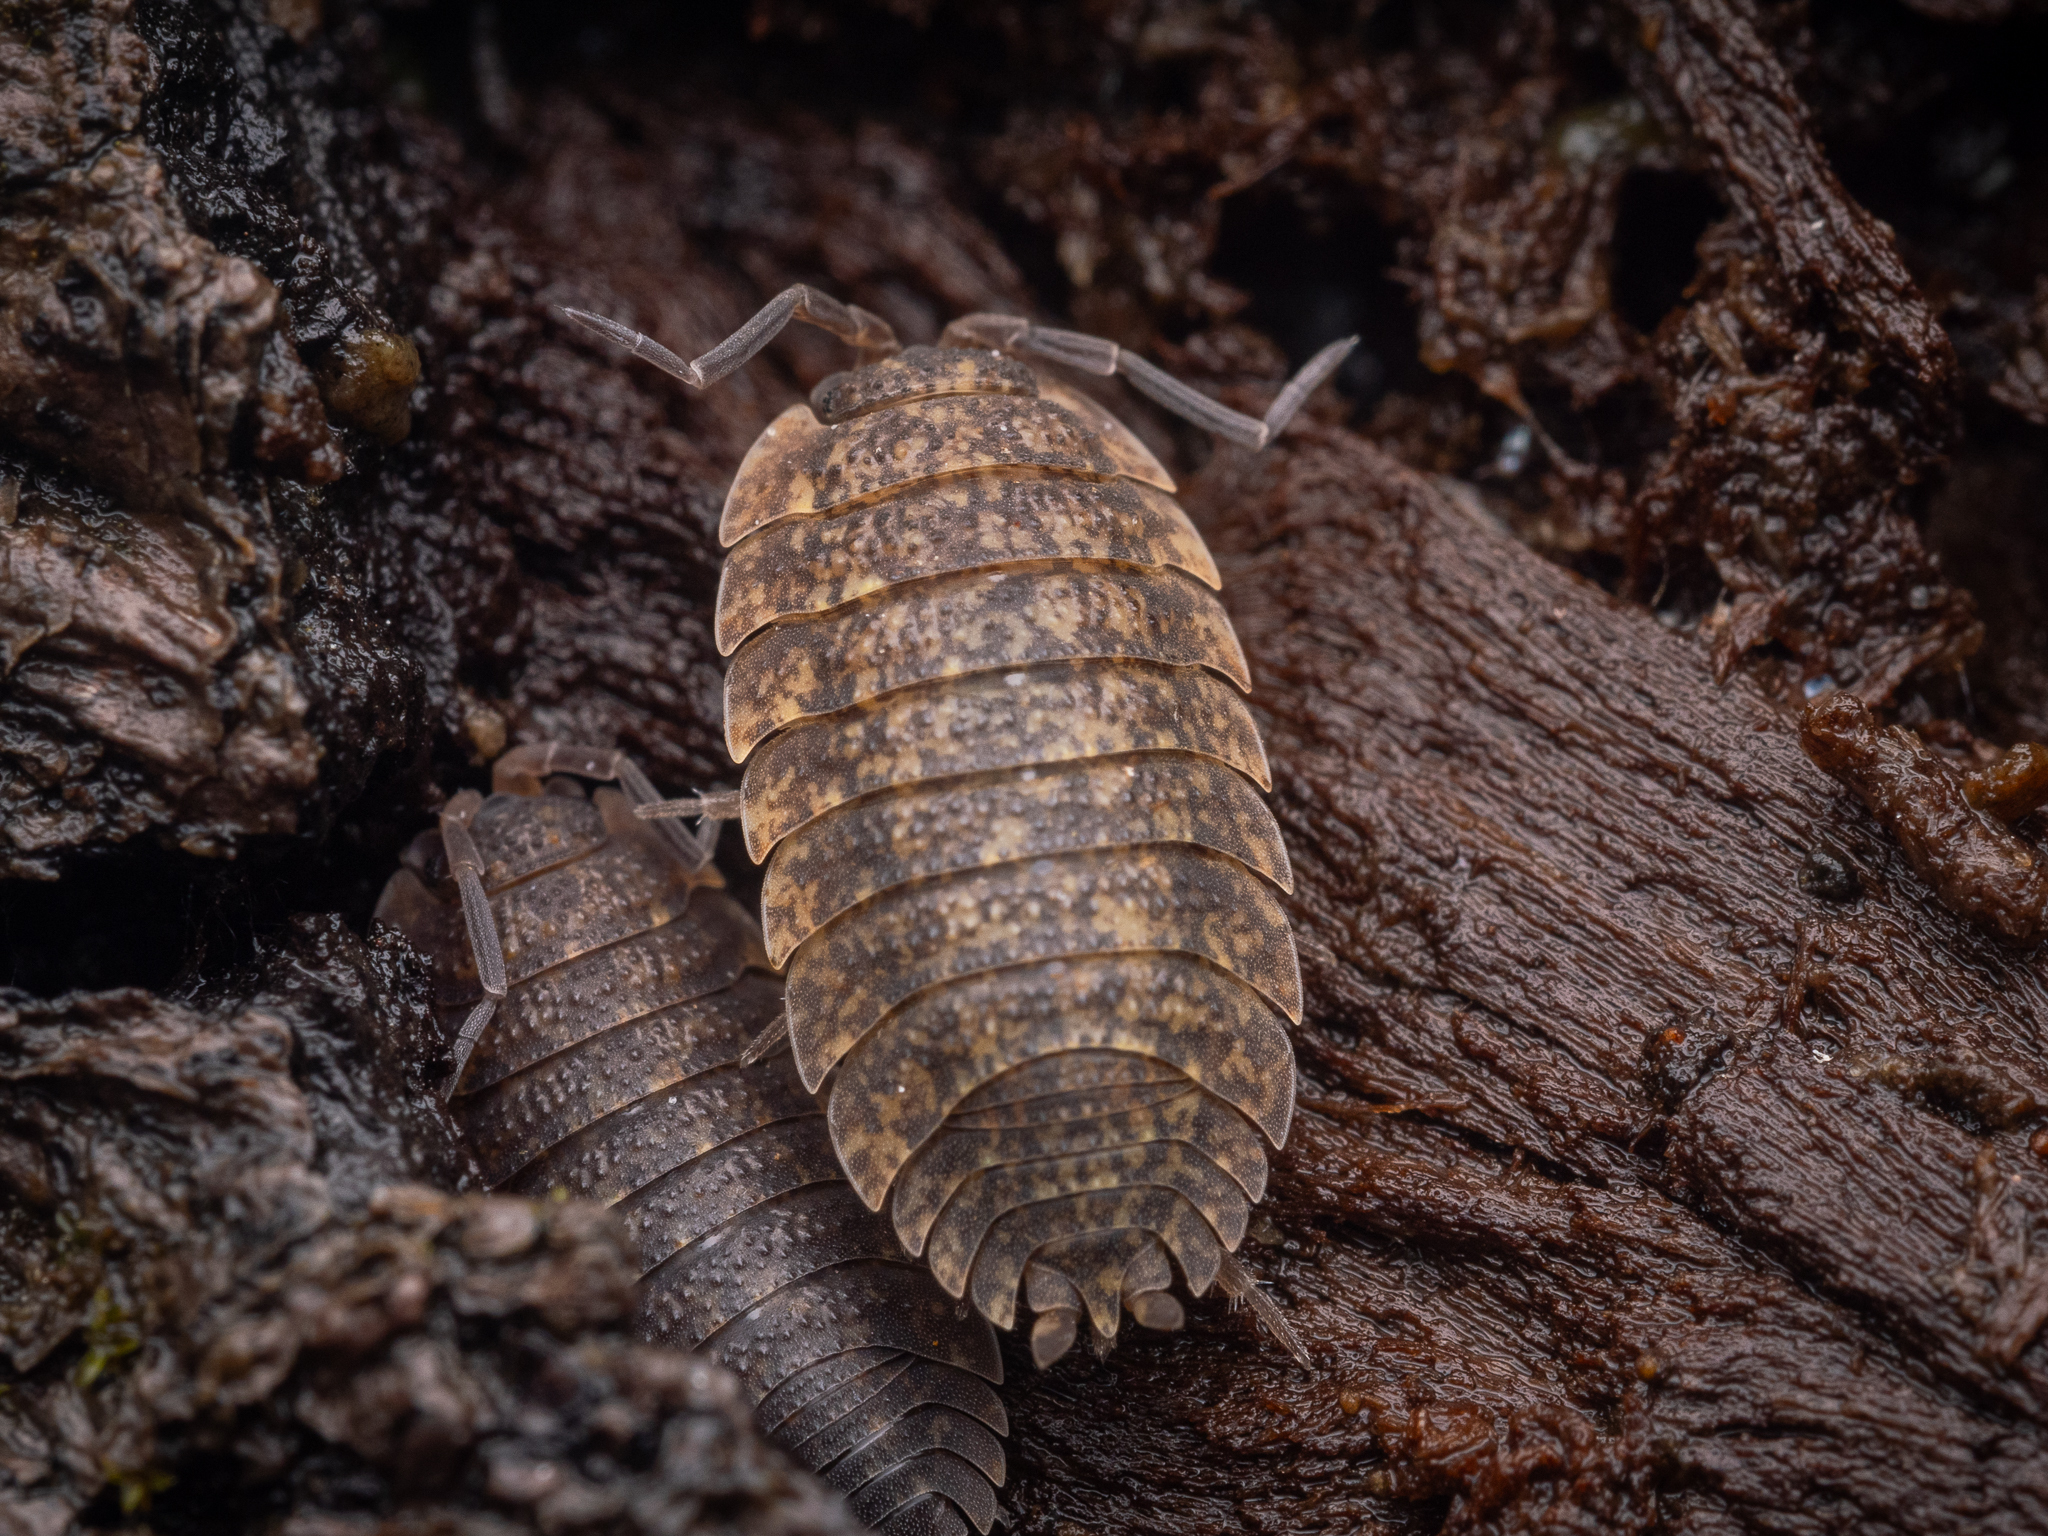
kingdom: Animalia
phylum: Arthropoda
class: Malacostraca
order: Isopoda
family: Porcellionidae
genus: Porcellio
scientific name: Porcellio scaber
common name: Common rough woodlouse
